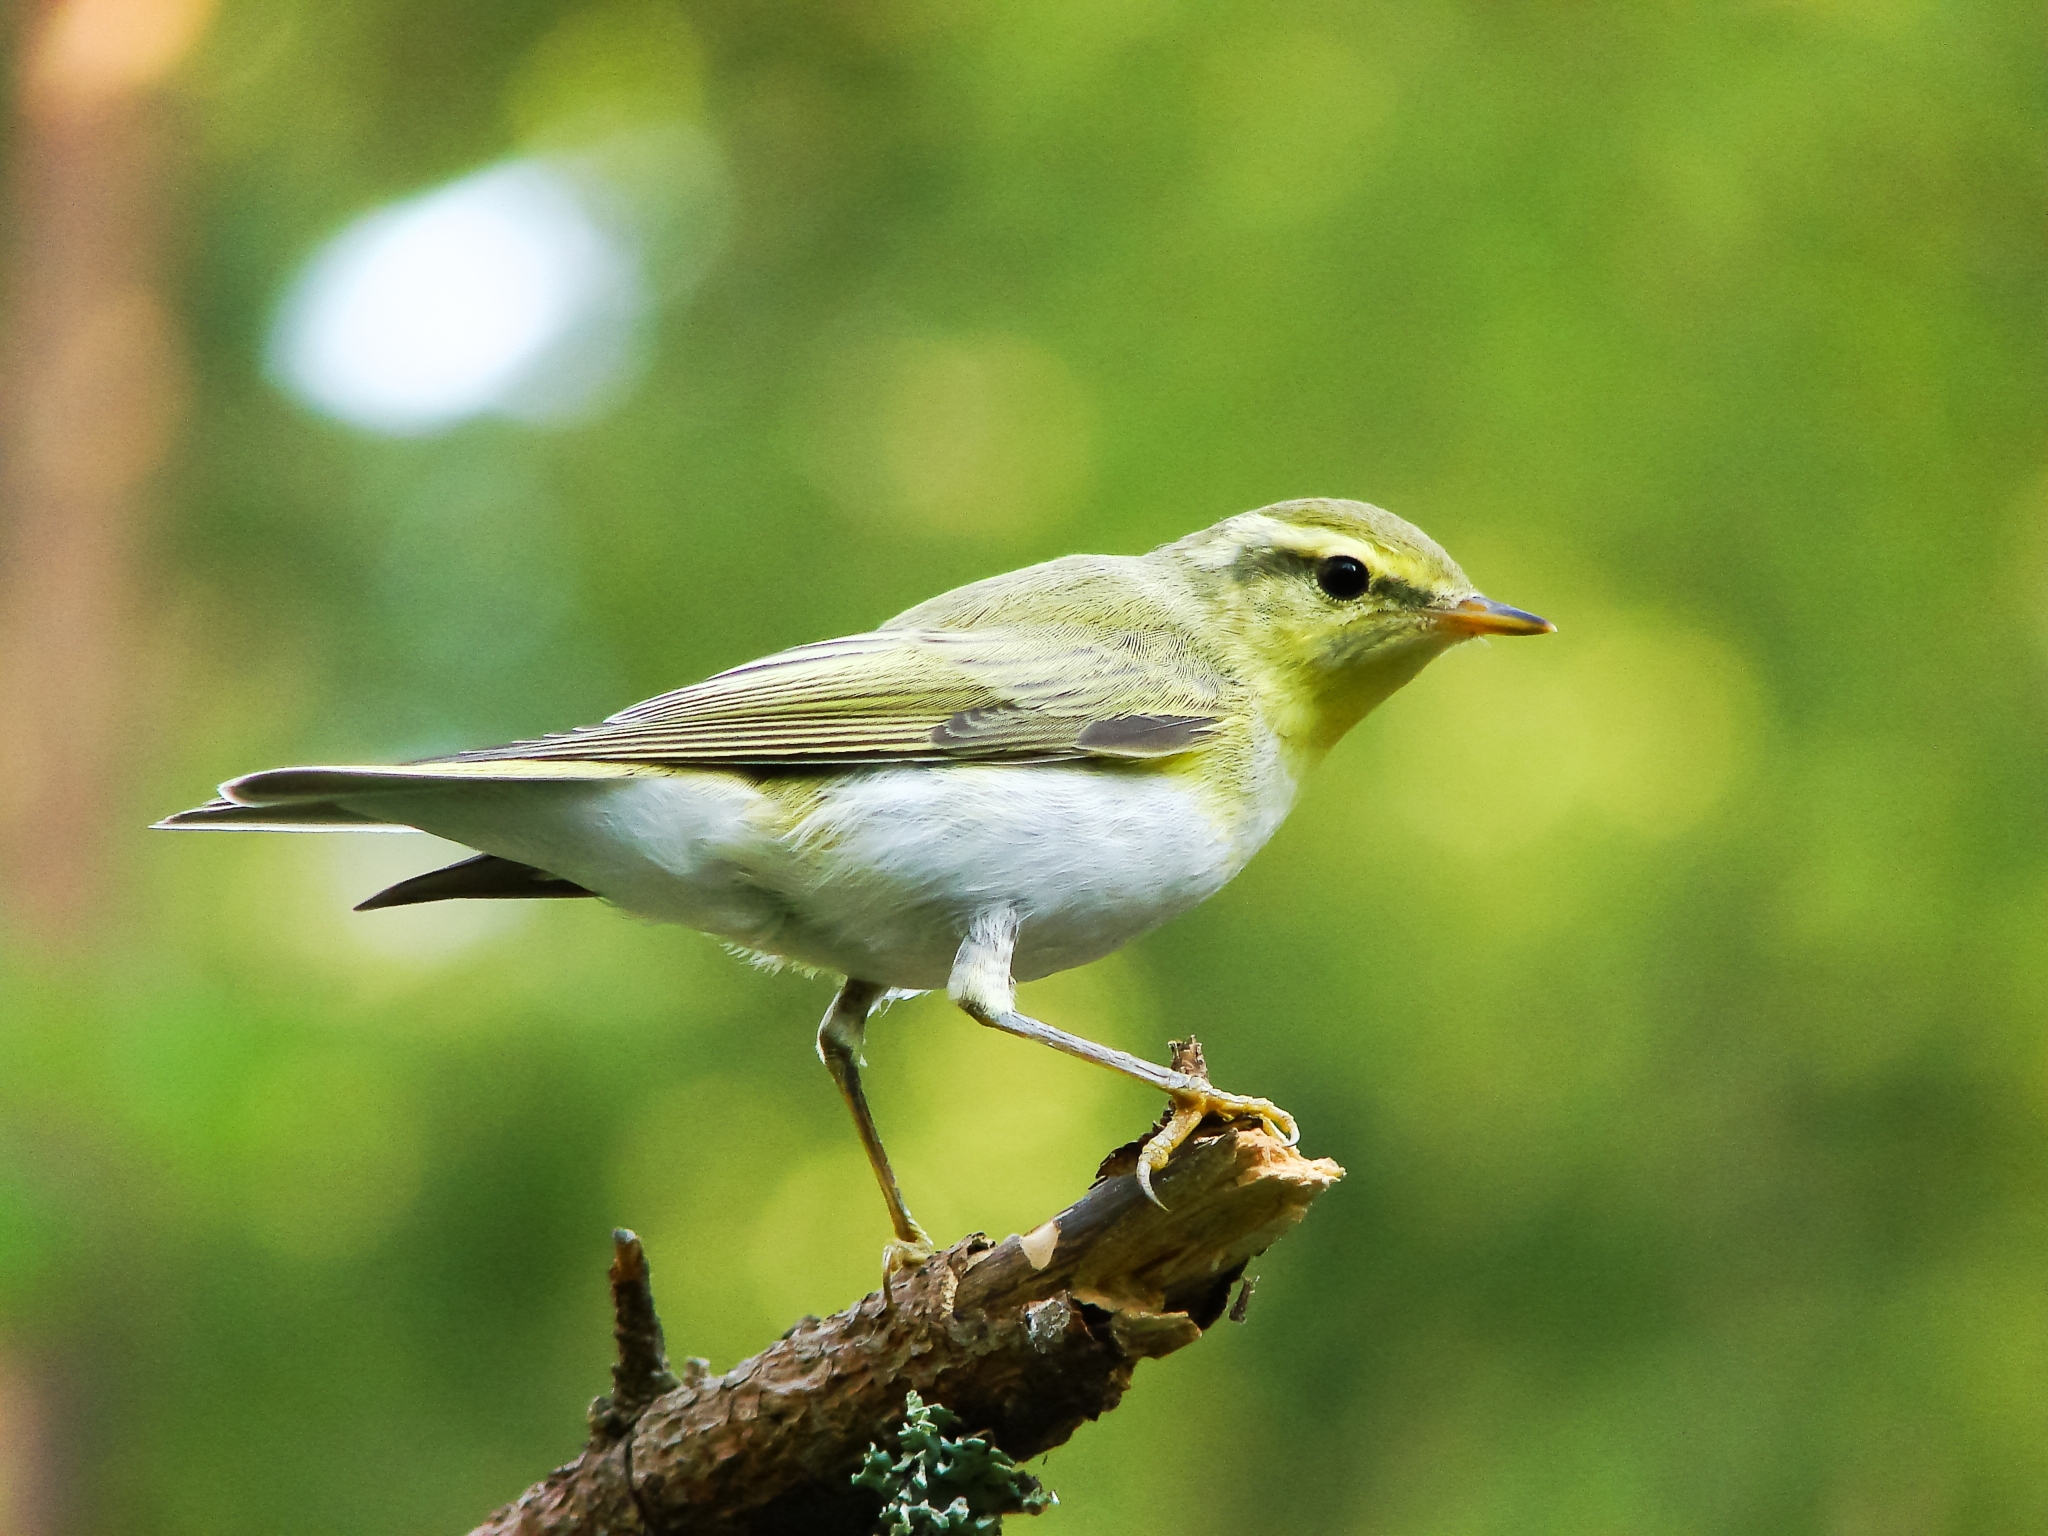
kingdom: Animalia
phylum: Chordata
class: Aves
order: Passeriformes
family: Phylloscopidae
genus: Phylloscopus
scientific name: Phylloscopus sibillatrix
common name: Wood warbler
